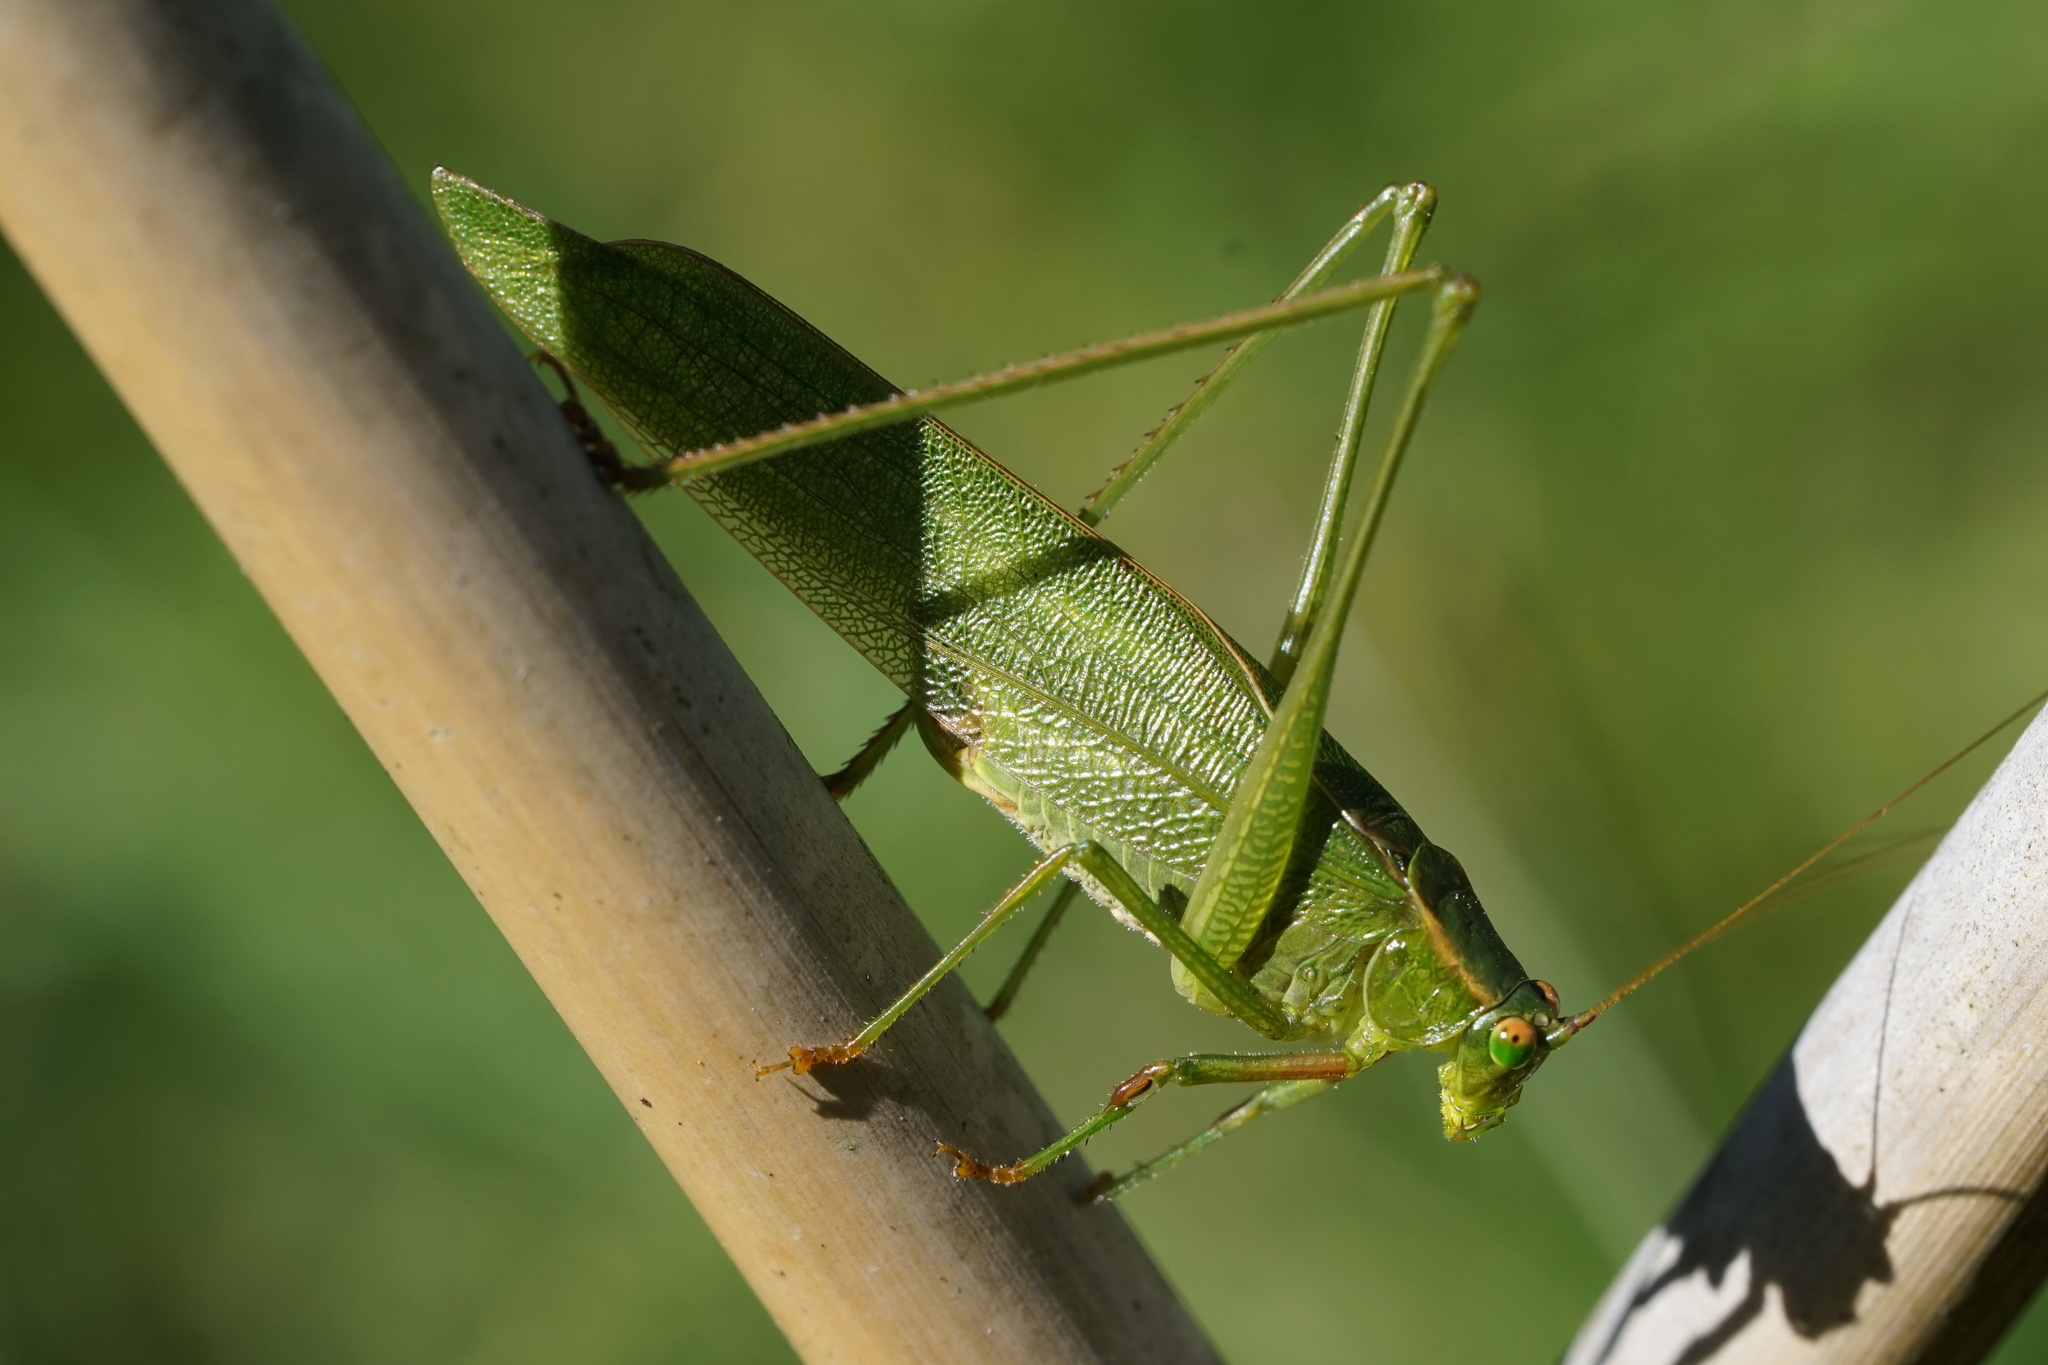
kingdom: Animalia
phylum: Arthropoda
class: Insecta
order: Orthoptera
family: Tettigoniidae
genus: Scudderia
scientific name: Scudderia furcata
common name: Fork-tailed bush katydid
